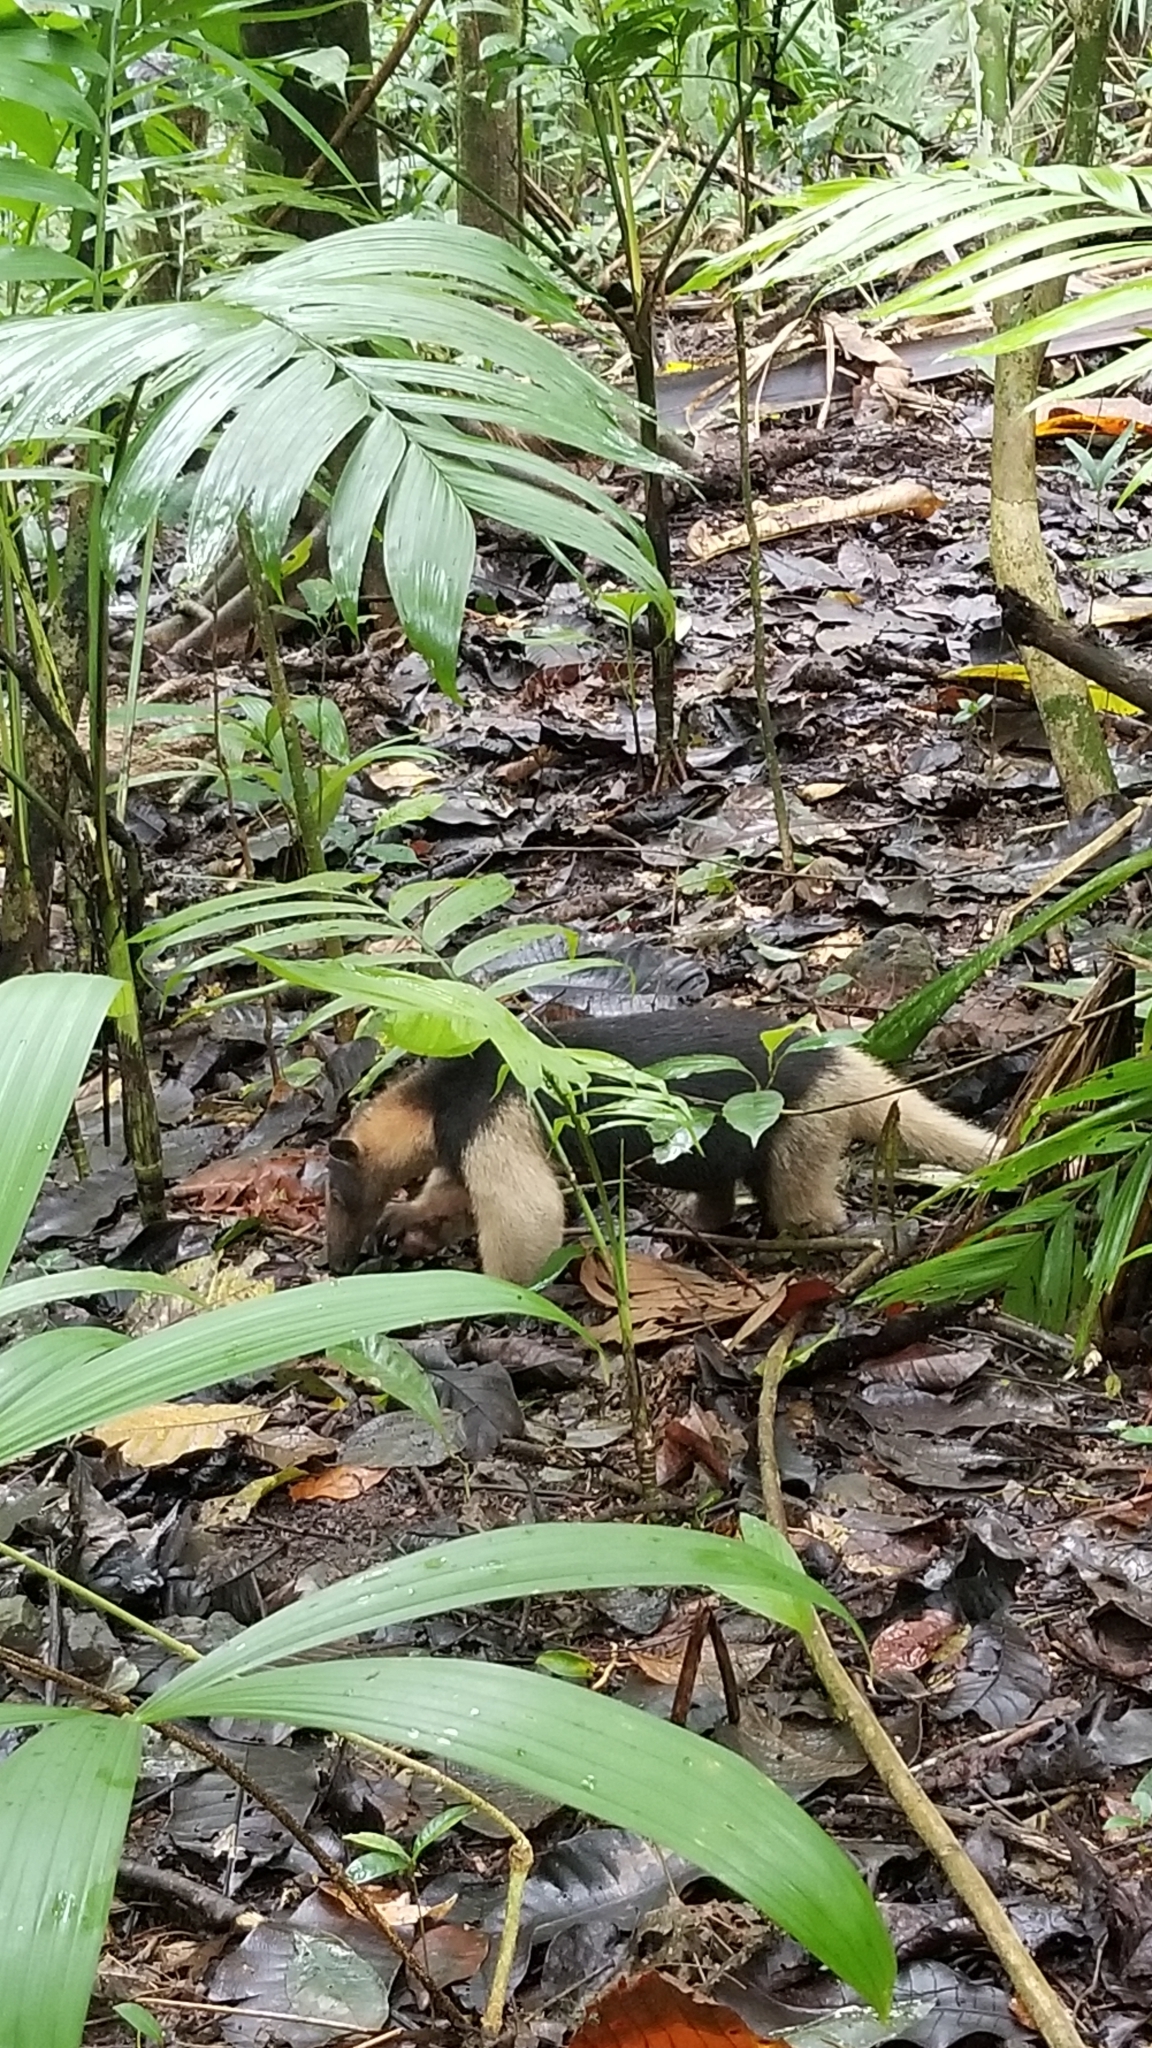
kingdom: Animalia
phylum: Chordata
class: Mammalia
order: Pilosa
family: Myrmecophagidae
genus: Tamandua
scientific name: Tamandua mexicana
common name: Northern tamandua
